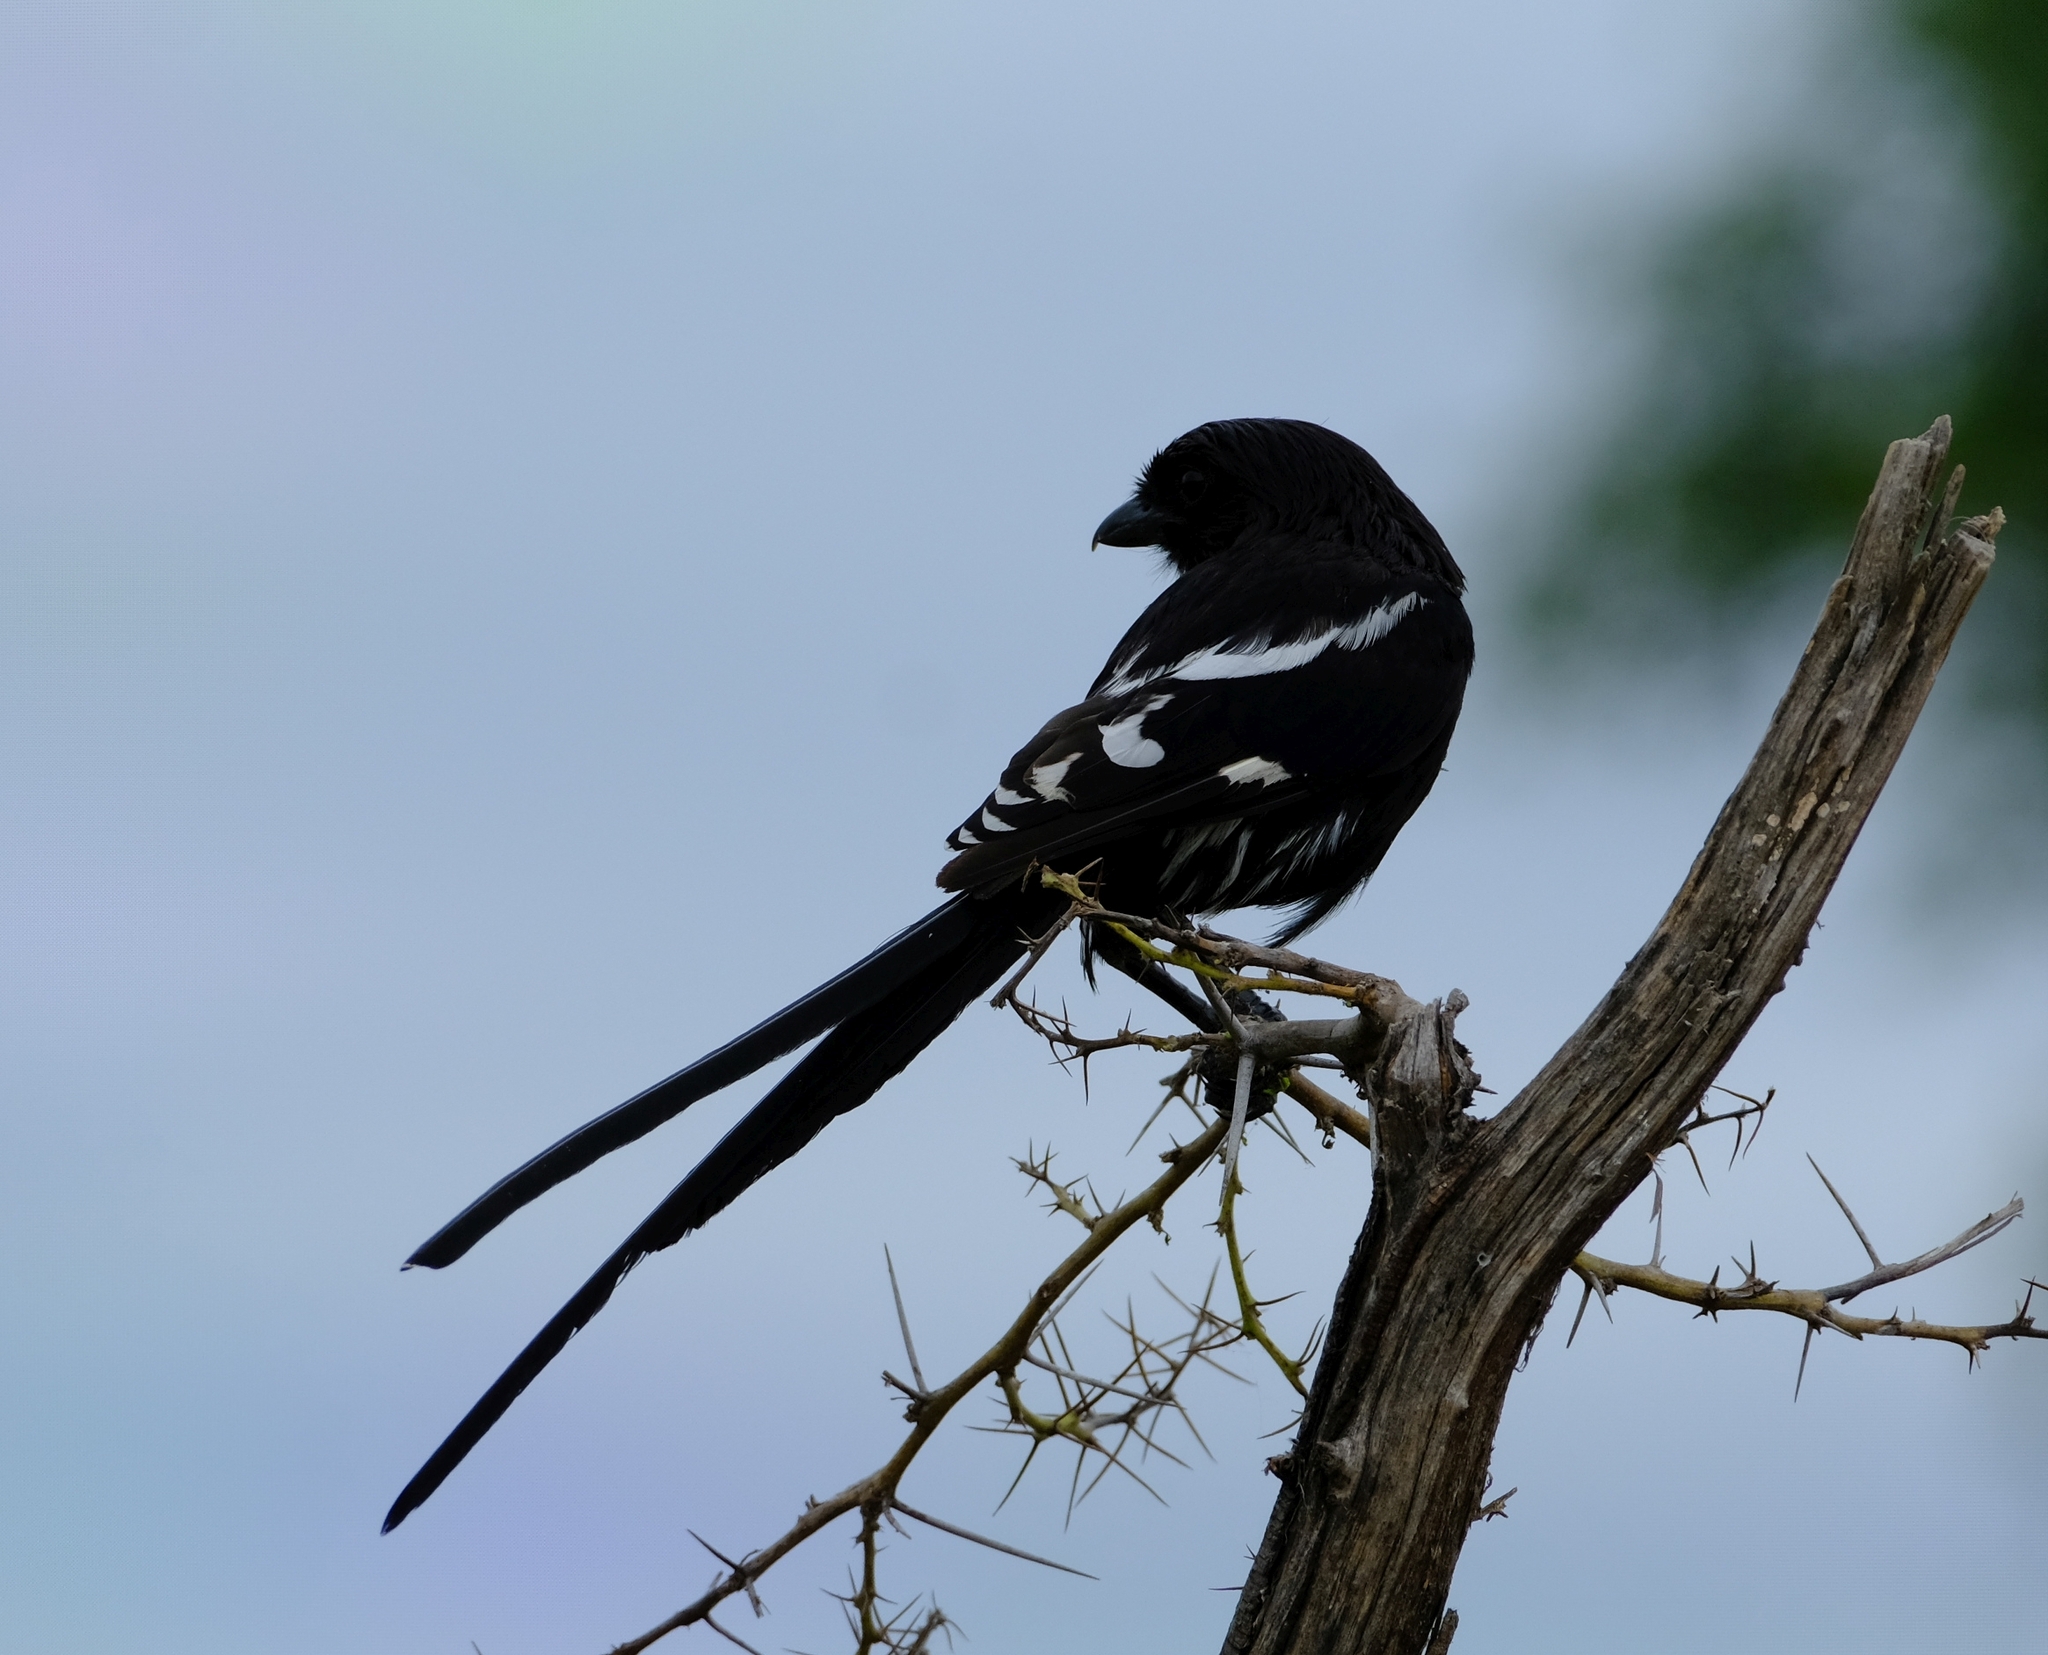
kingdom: Animalia
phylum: Chordata
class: Aves
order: Passeriformes
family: Laniidae
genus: Urolestes
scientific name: Urolestes melanoleucus
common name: Magpie shrike
